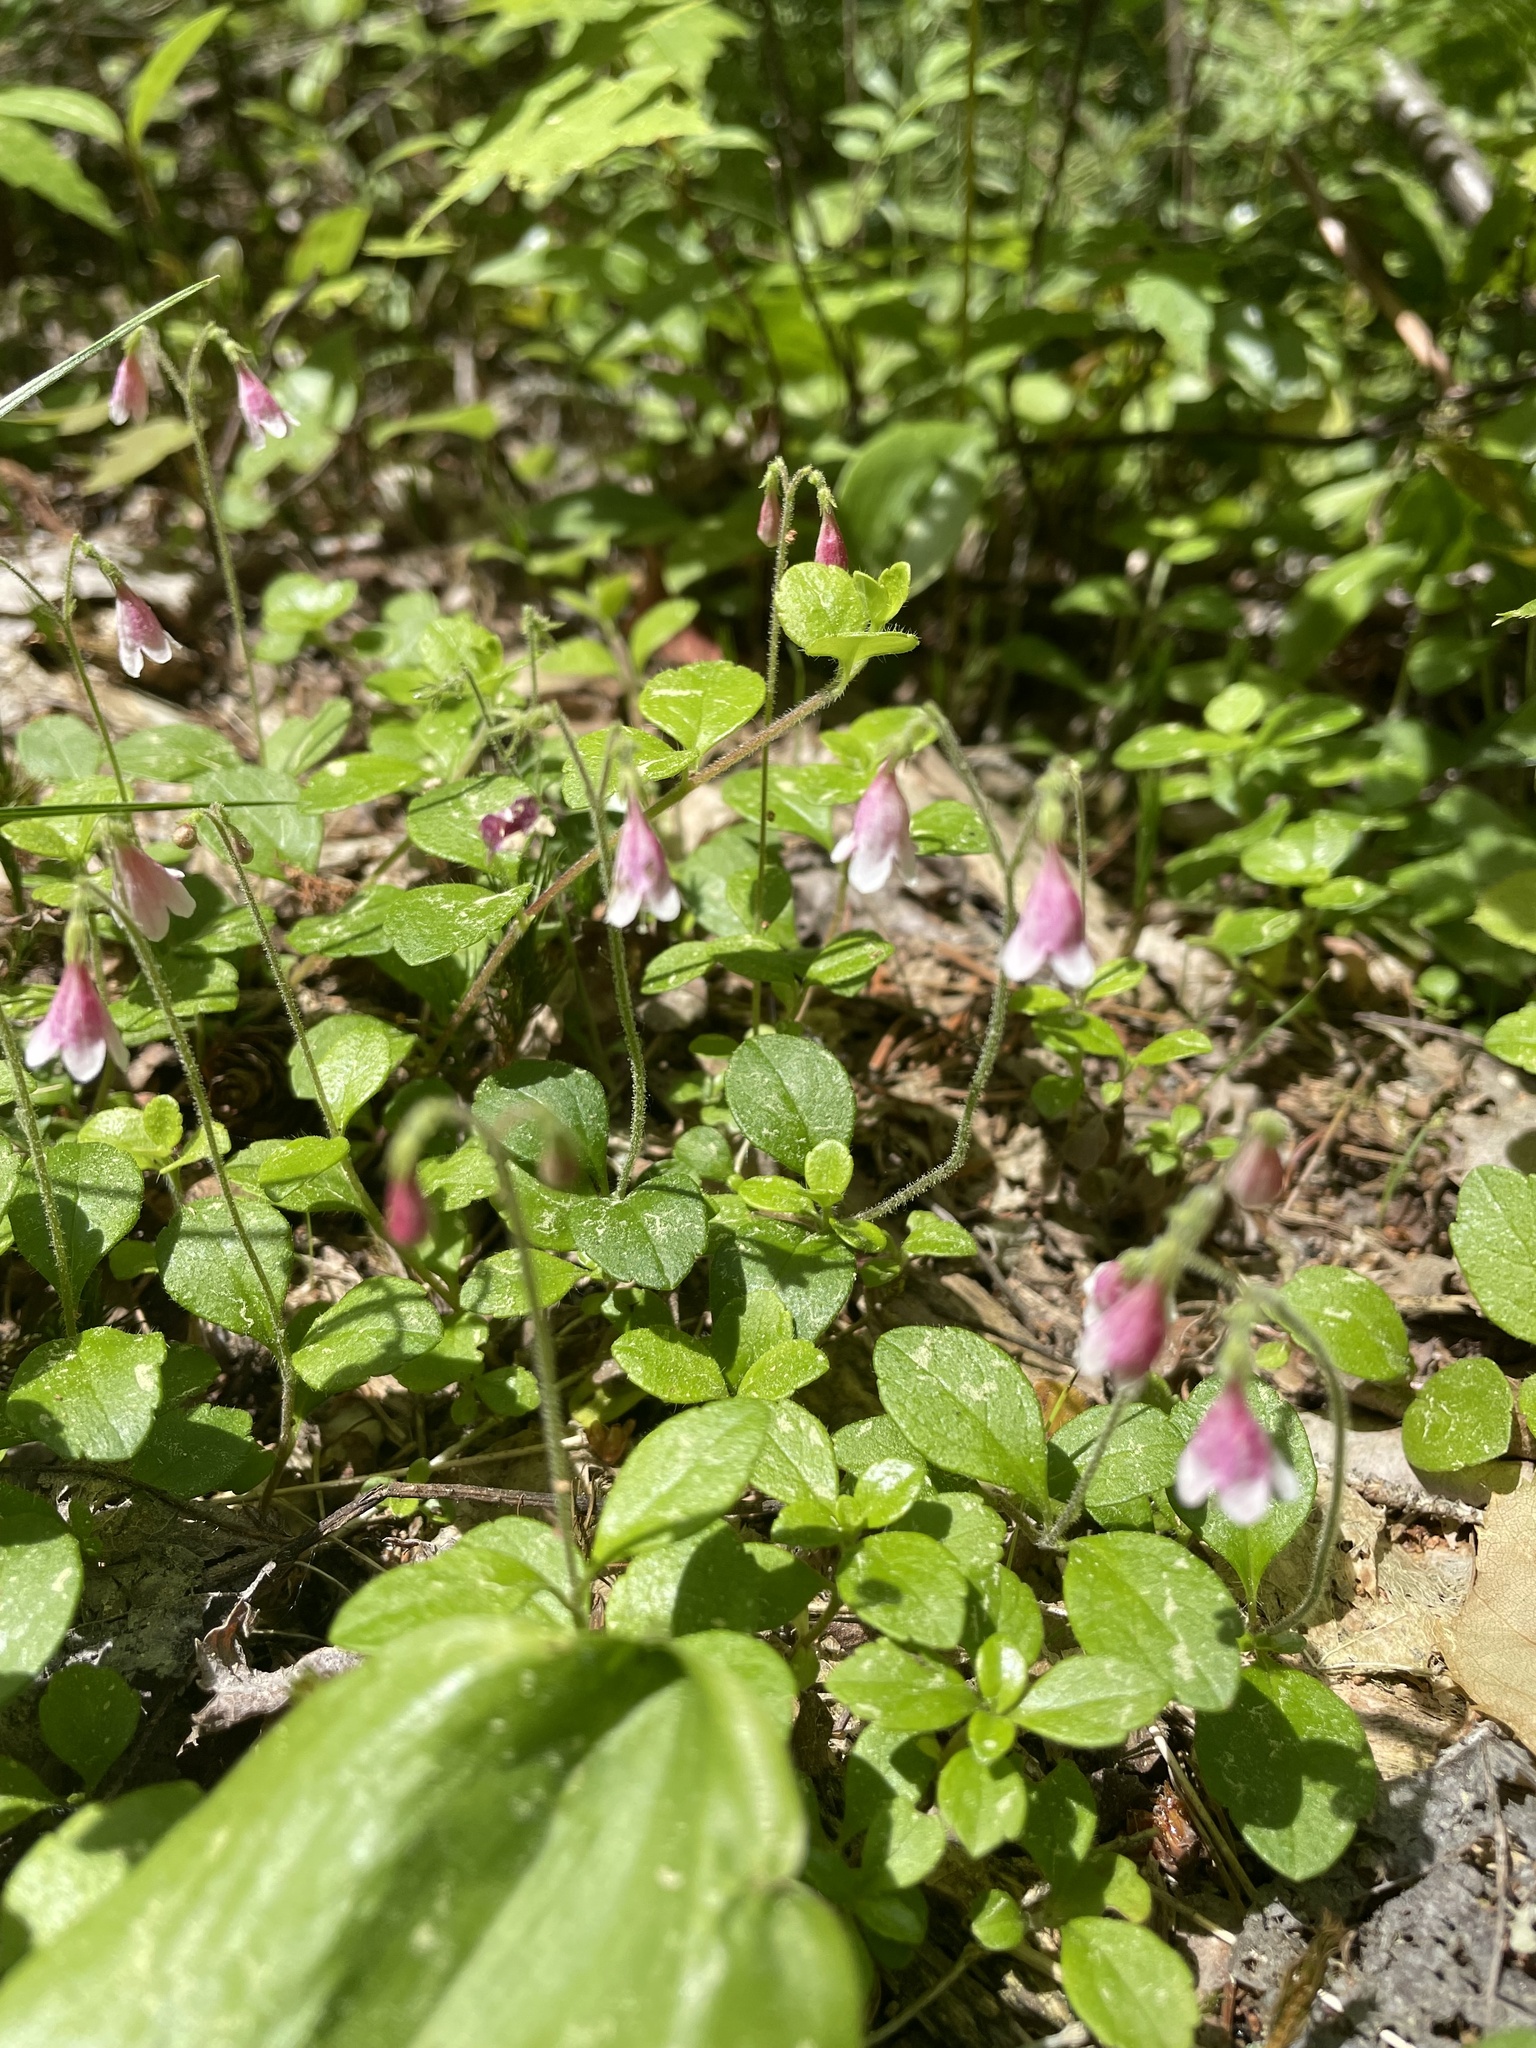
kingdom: Plantae
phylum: Tracheophyta
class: Magnoliopsida
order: Dipsacales
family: Caprifoliaceae
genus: Linnaea
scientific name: Linnaea borealis
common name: Twinflower
